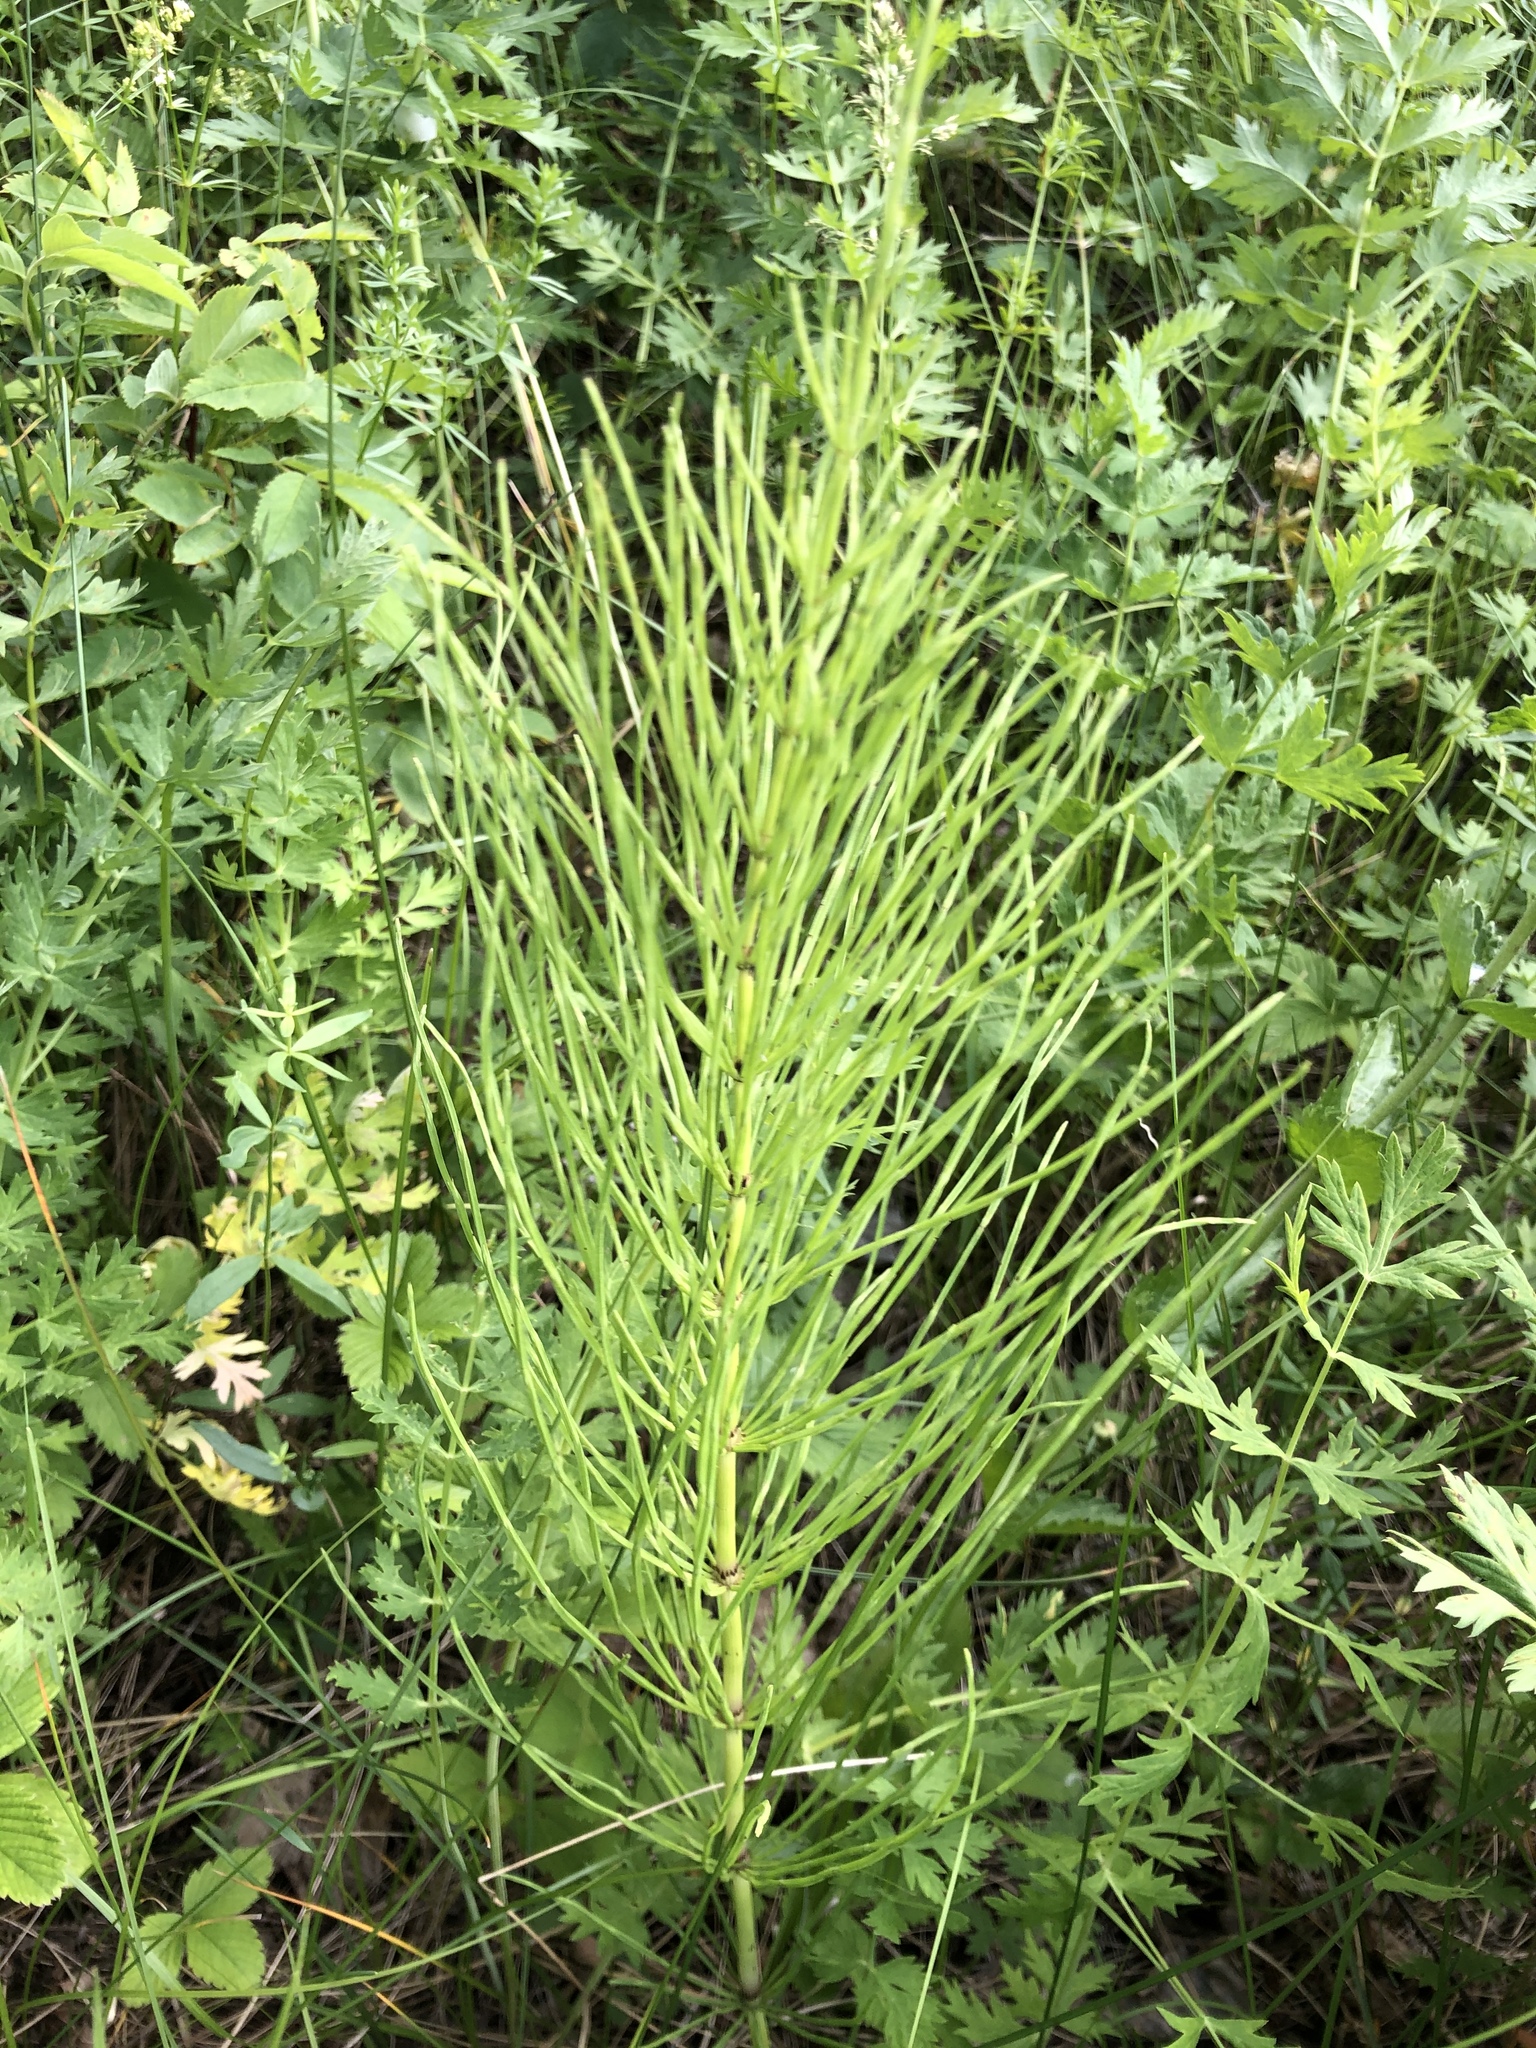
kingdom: Plantae
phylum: Tracheophyta
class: Polypodiopsida
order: Equisetales
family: Equisetaceae
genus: Equisetum
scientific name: Equisetum arvense
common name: Field horsetail
